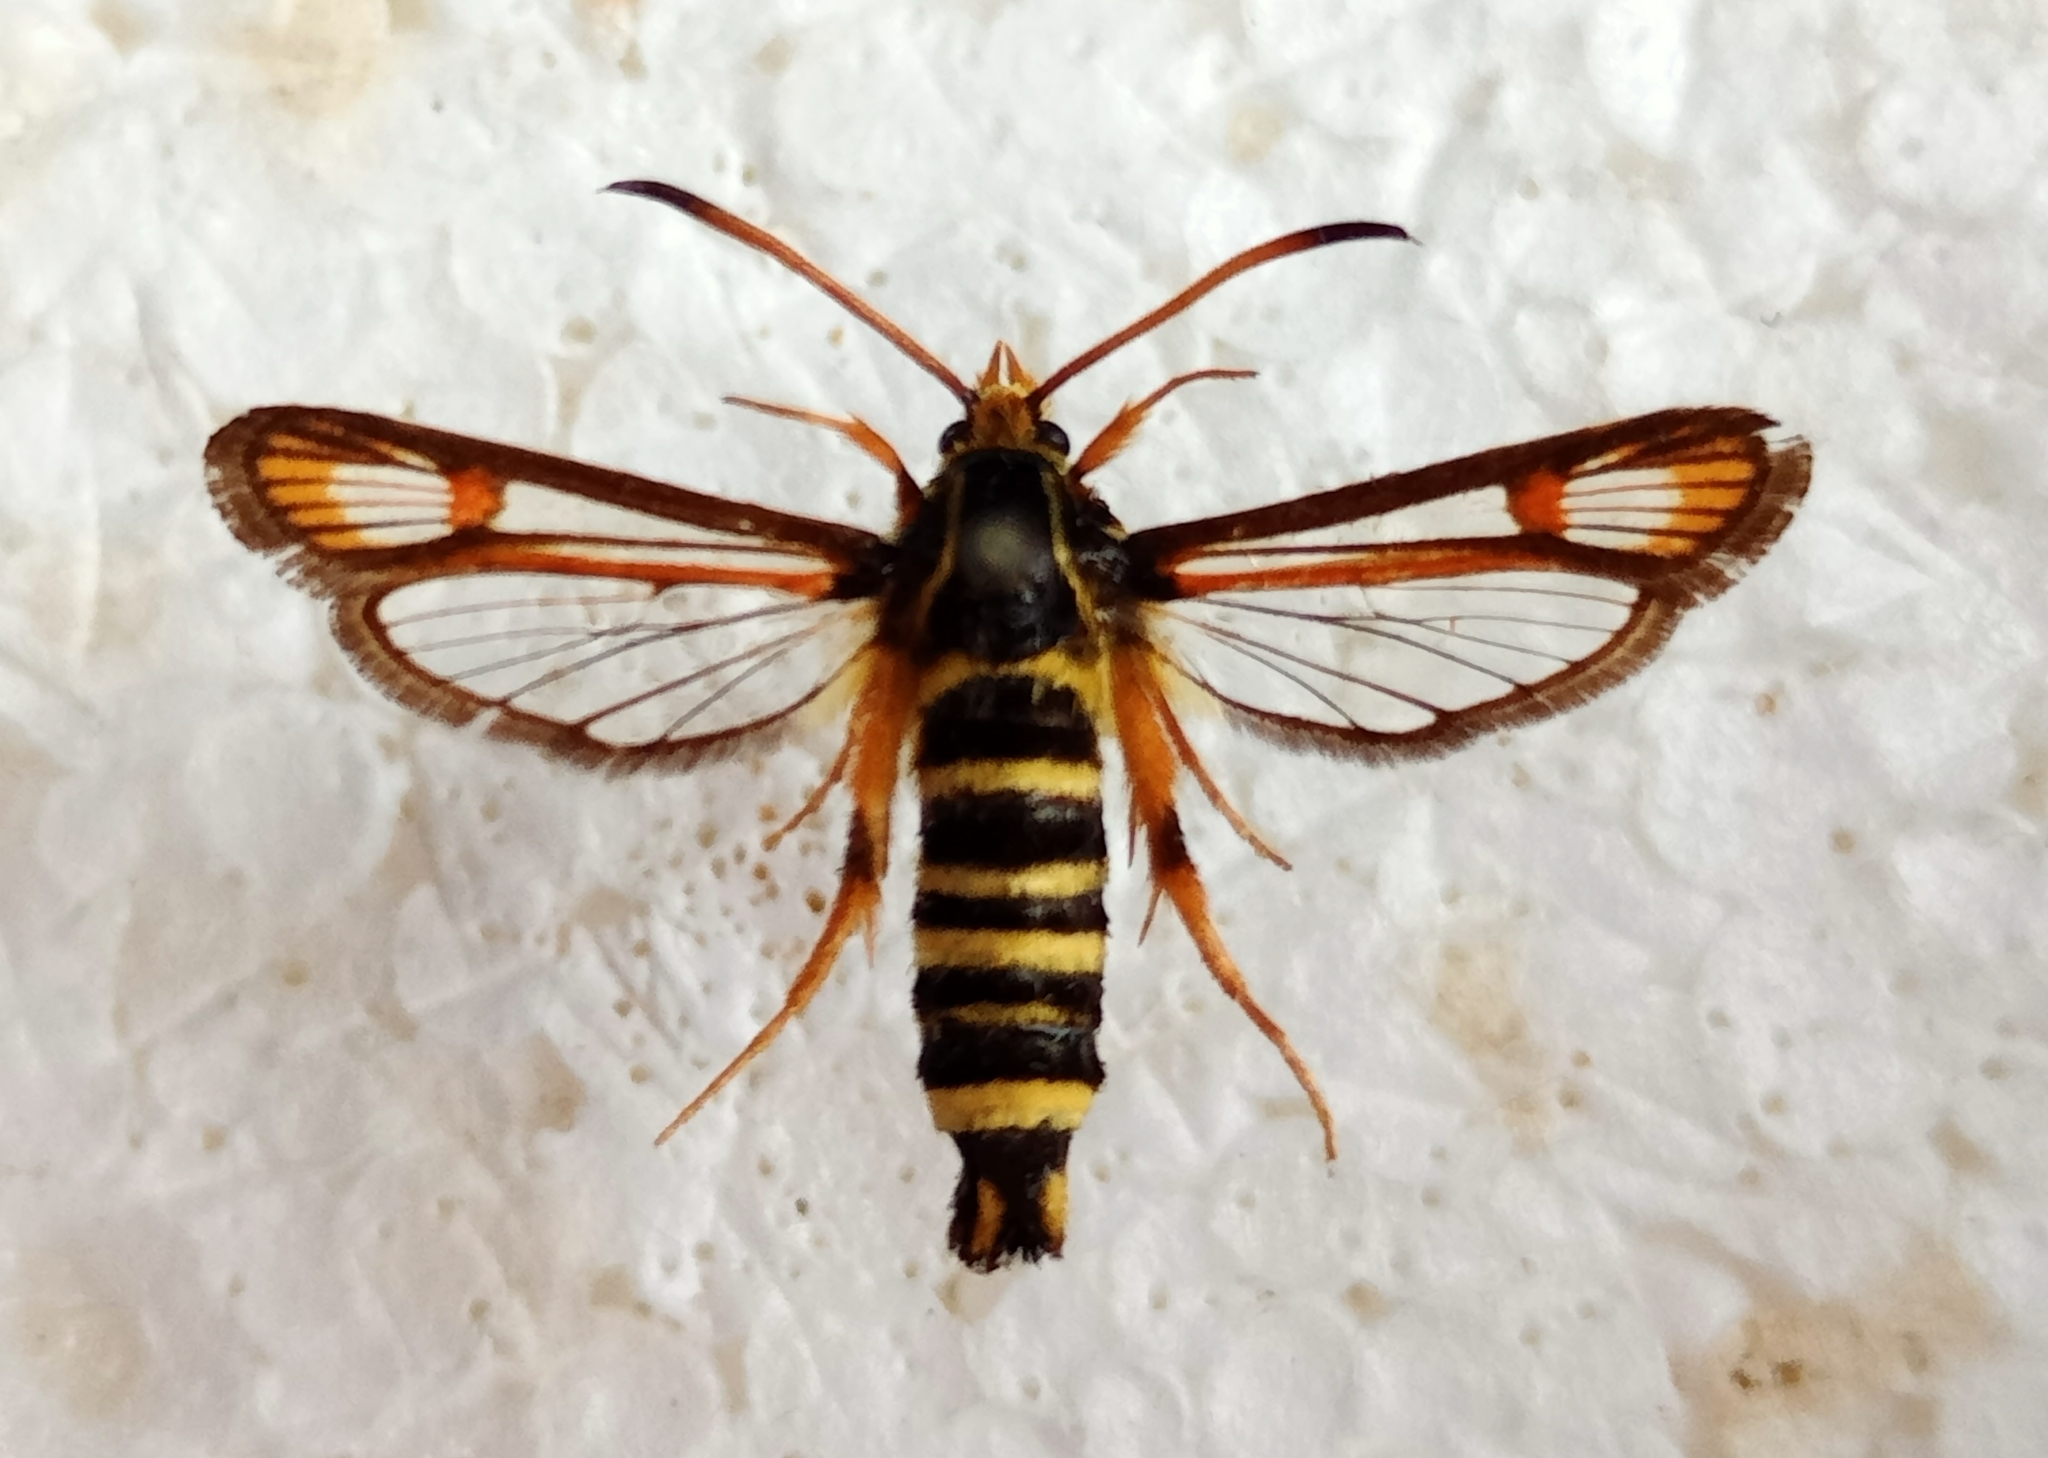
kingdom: Animalia
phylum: Arthropoda
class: Insecta
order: Lepidoptera
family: Sesiidae
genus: Bembecia
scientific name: Bembecia ichneumoniformis
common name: Six-belted clearwing
